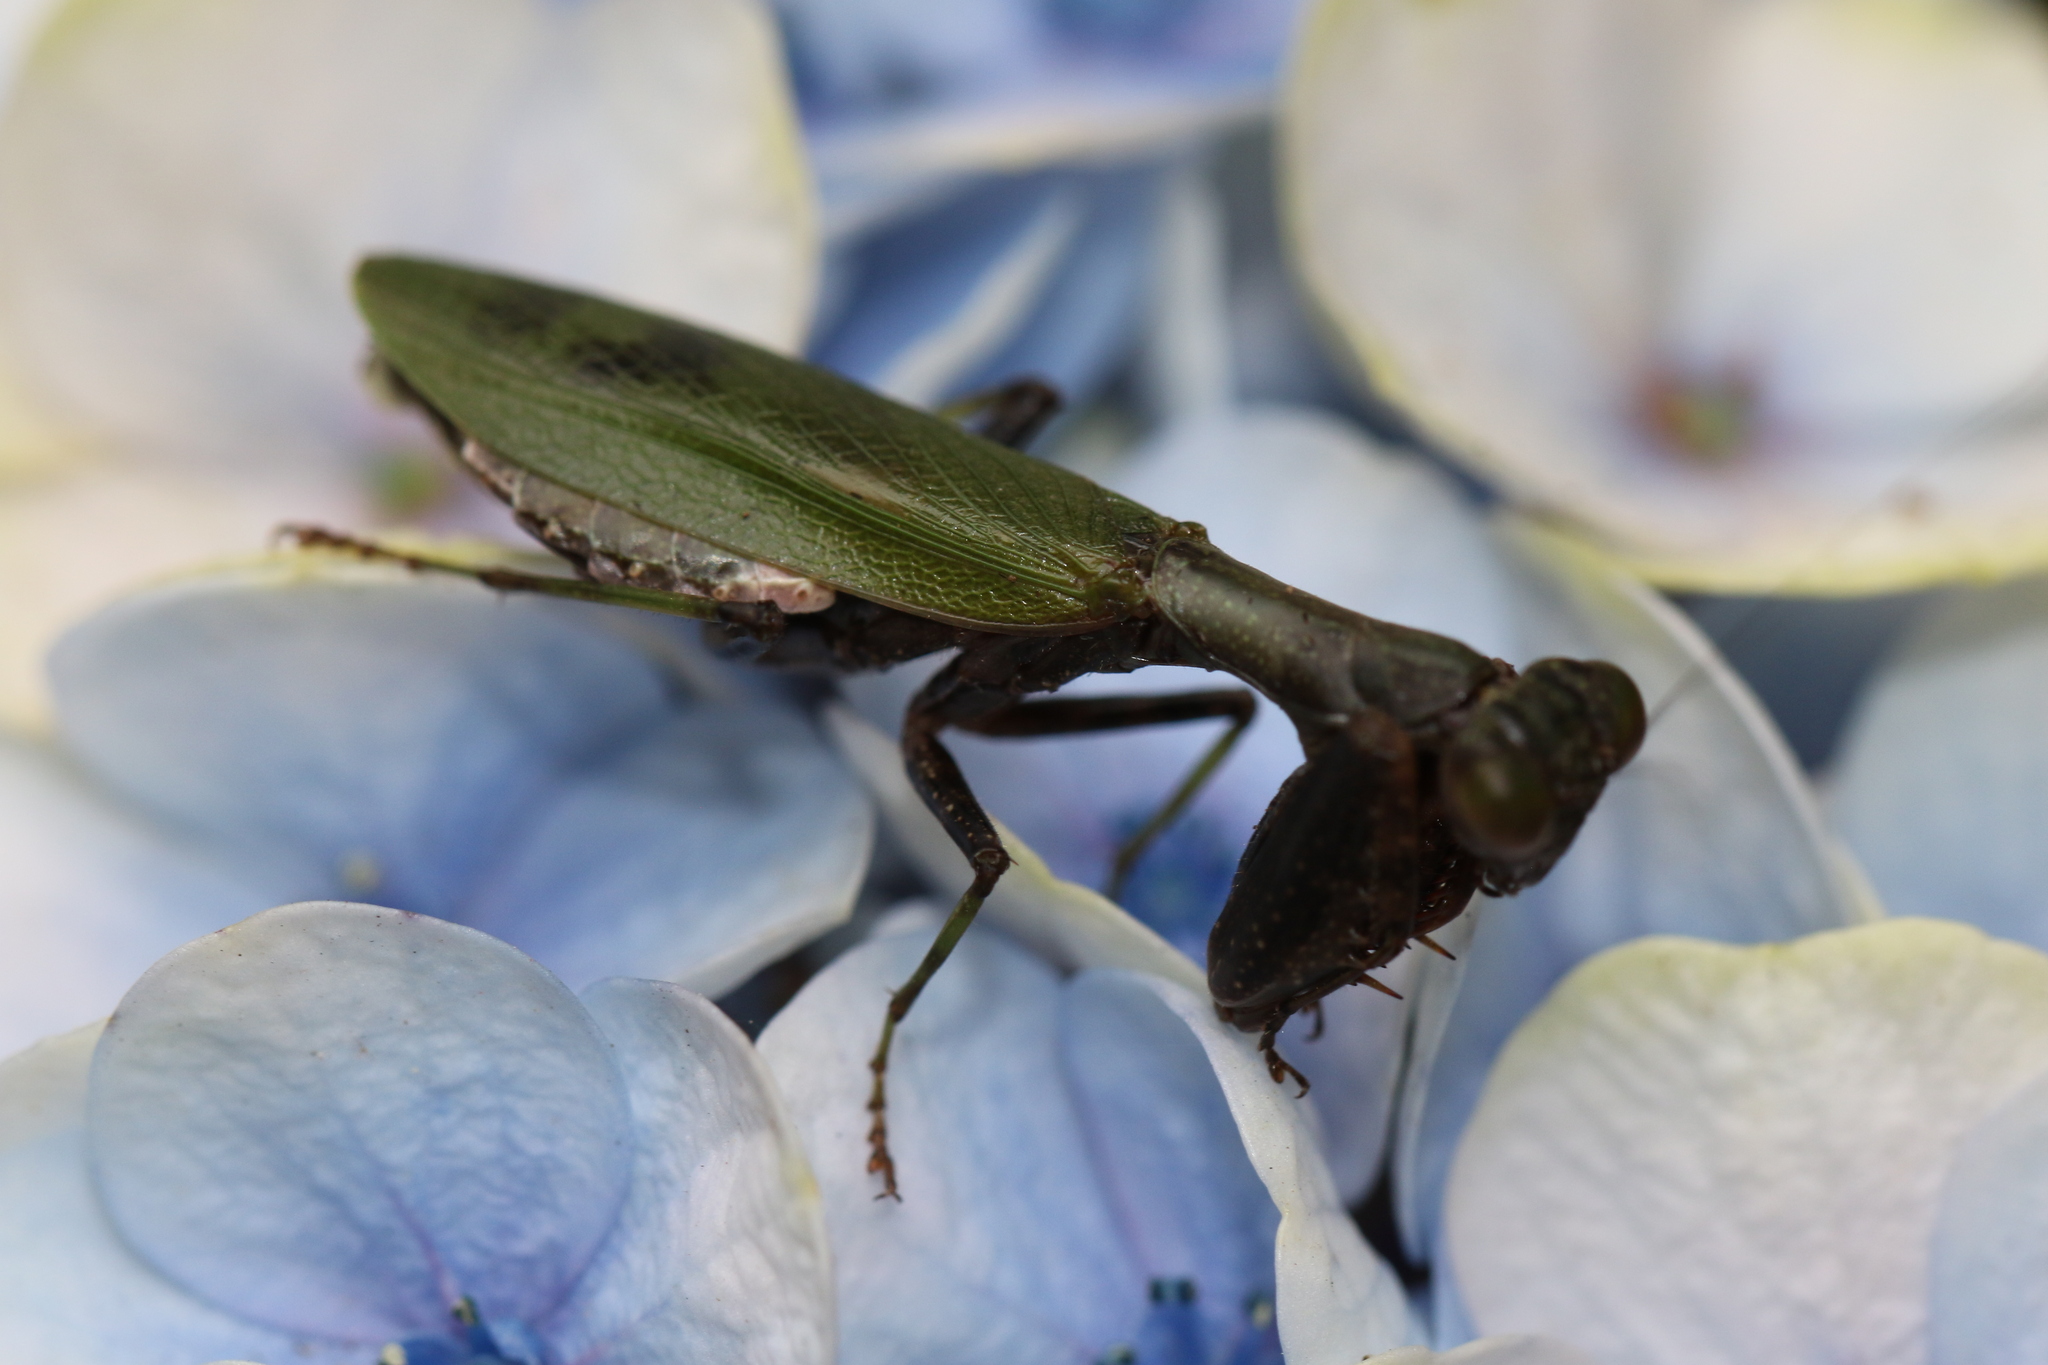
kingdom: Animalia
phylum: Arthropoda
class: Insecta
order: Mantodea
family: Acanthopidae
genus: Acontista
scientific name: Acontista concinna
